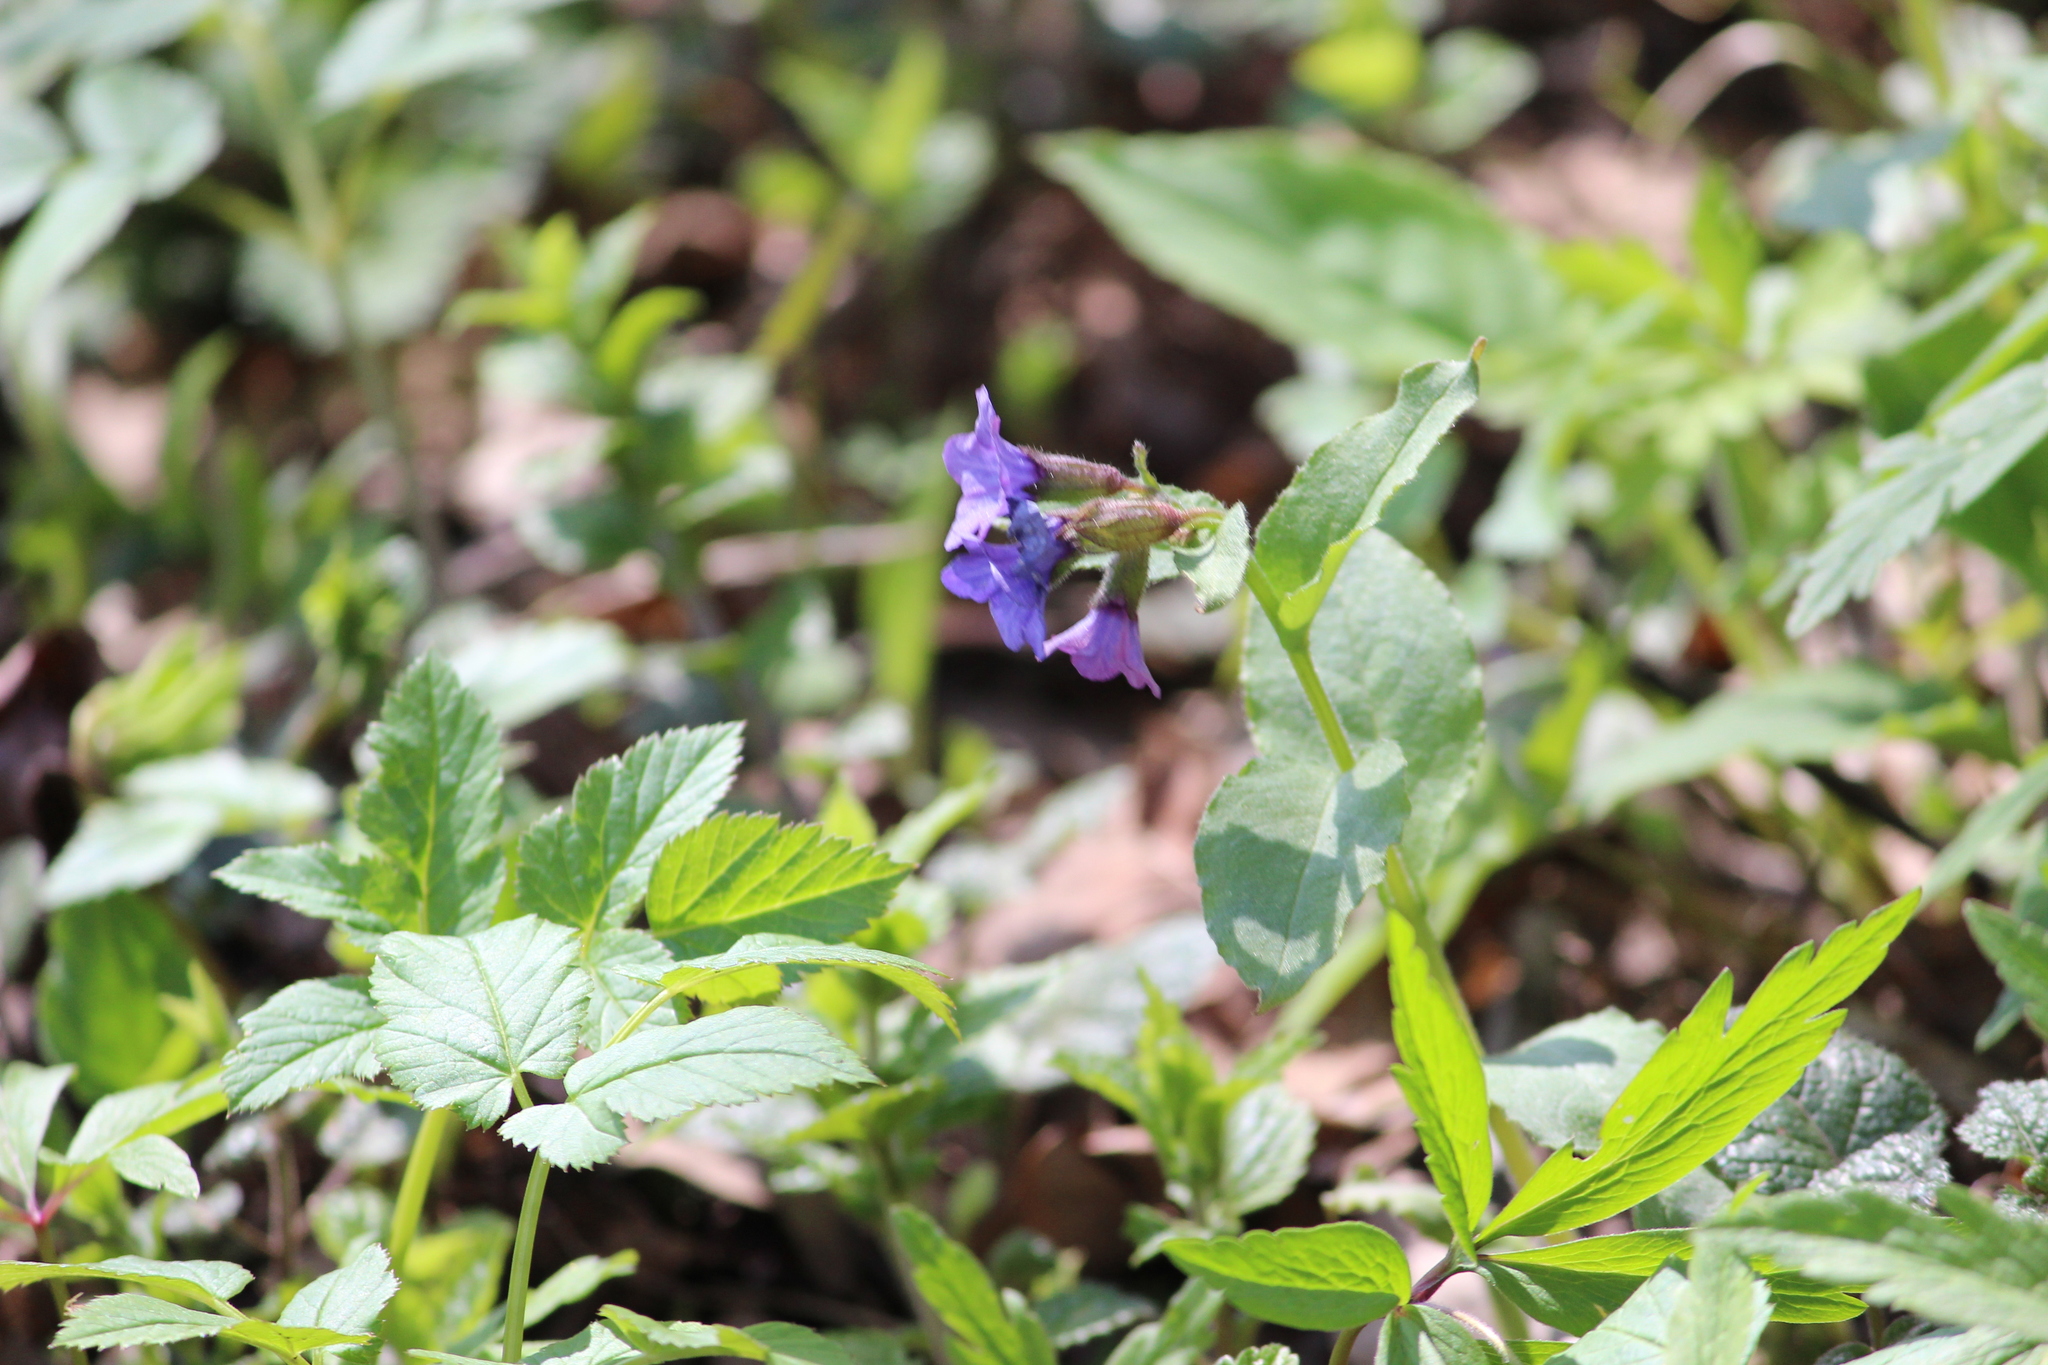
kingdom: Plantae
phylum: Tracheophyta
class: Magnoliopsida
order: Boraginales
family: Boraginaceae
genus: Pulmonaria
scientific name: Pulmonaria obscura
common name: Suffolk lungwort
